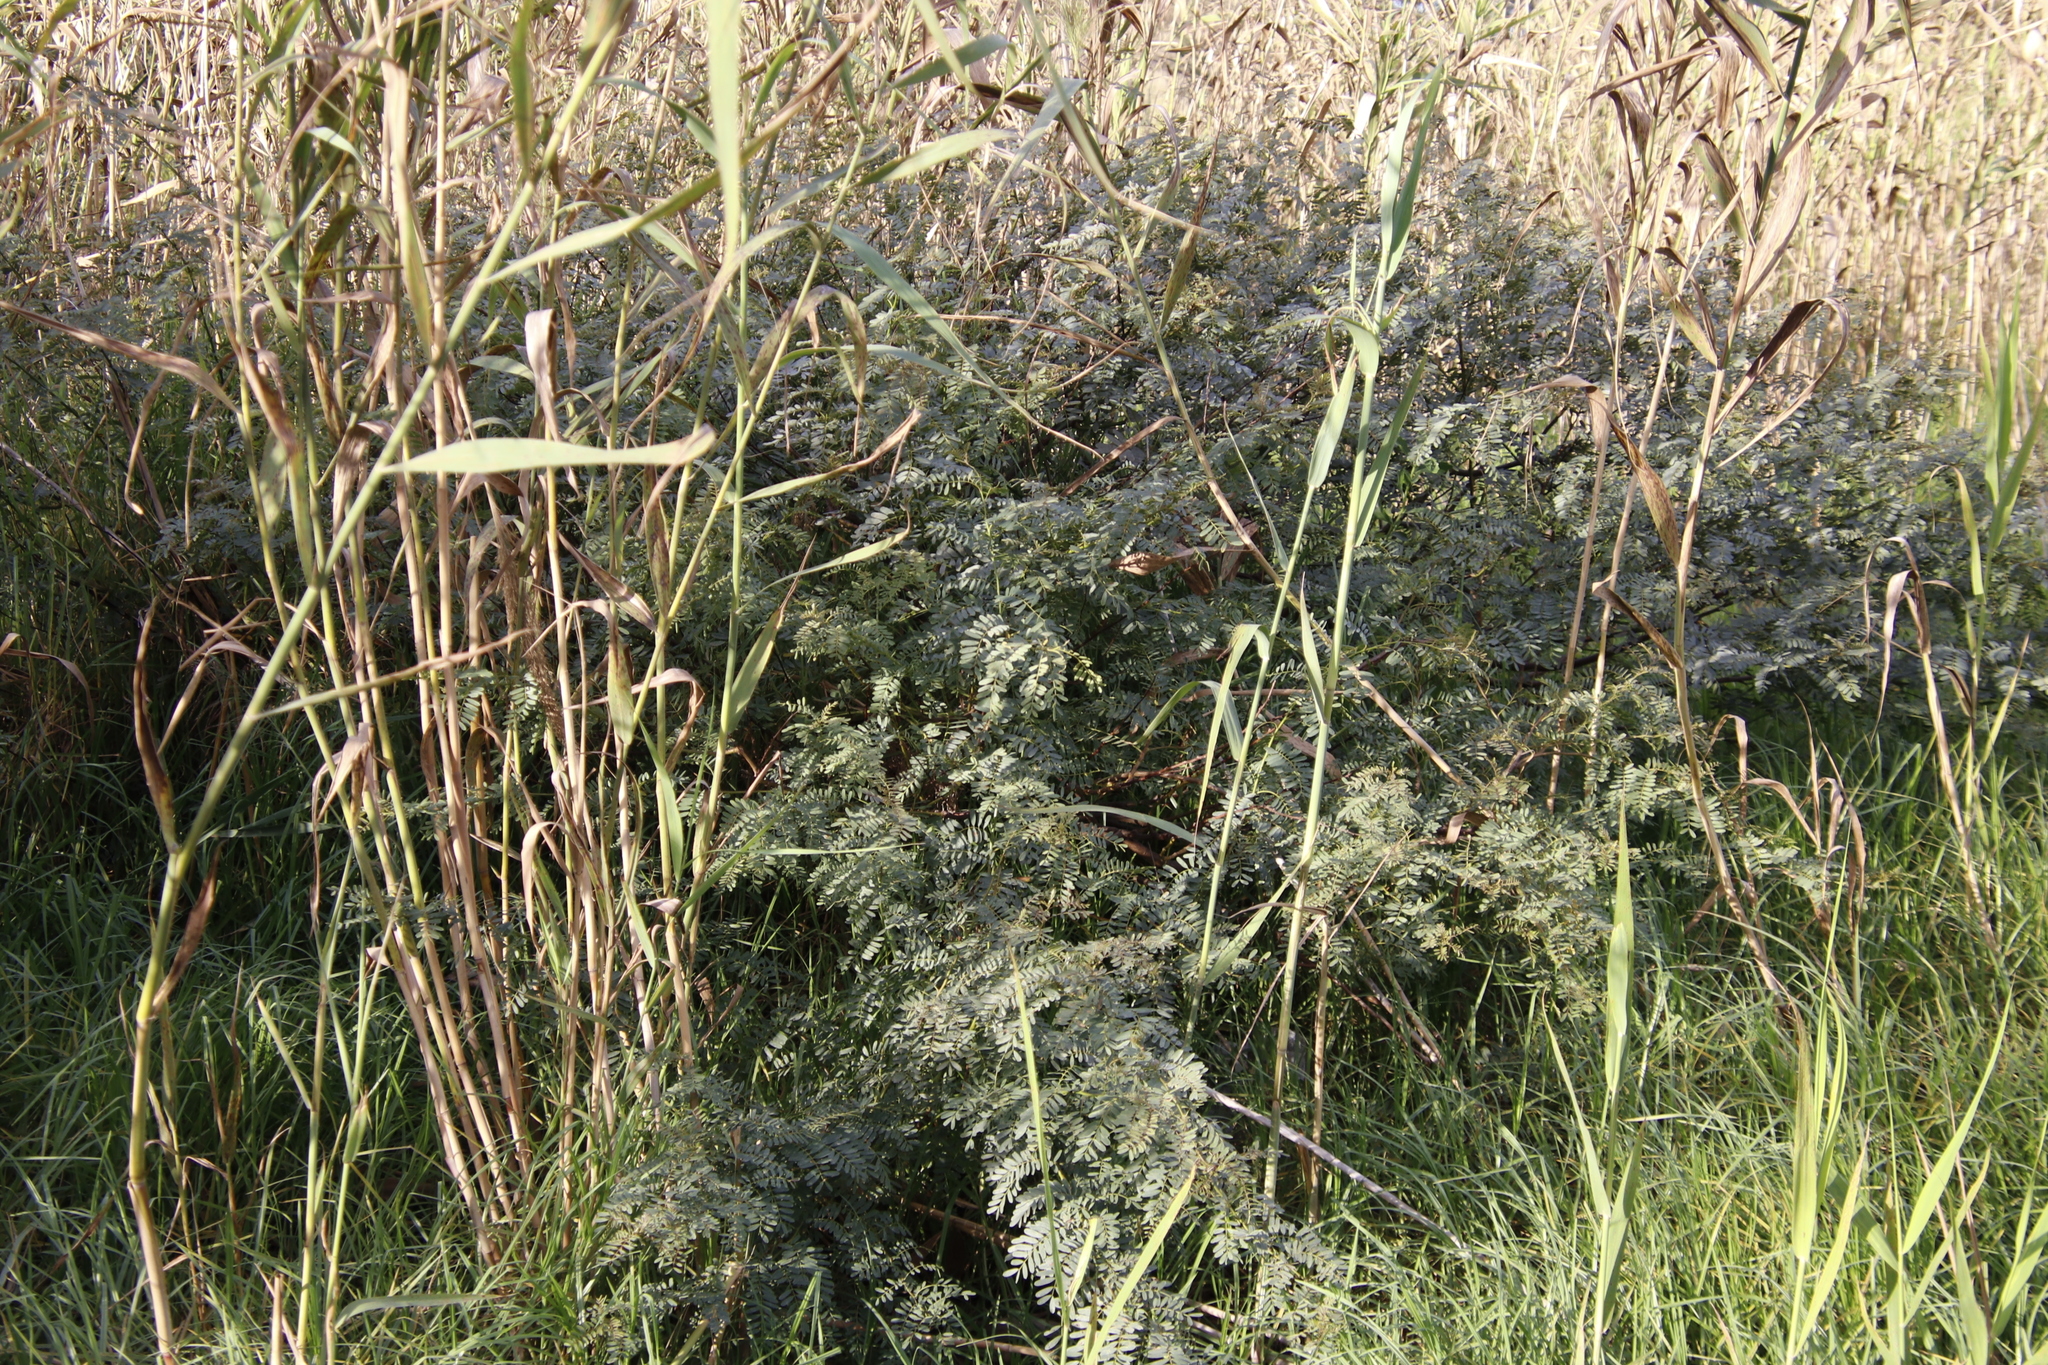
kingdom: Plantae
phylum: Tracheophyta
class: Magnoliopsida
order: Fabales
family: Fabaceae
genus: Sesbania
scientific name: Sesbania punicea
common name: Rattlebox
